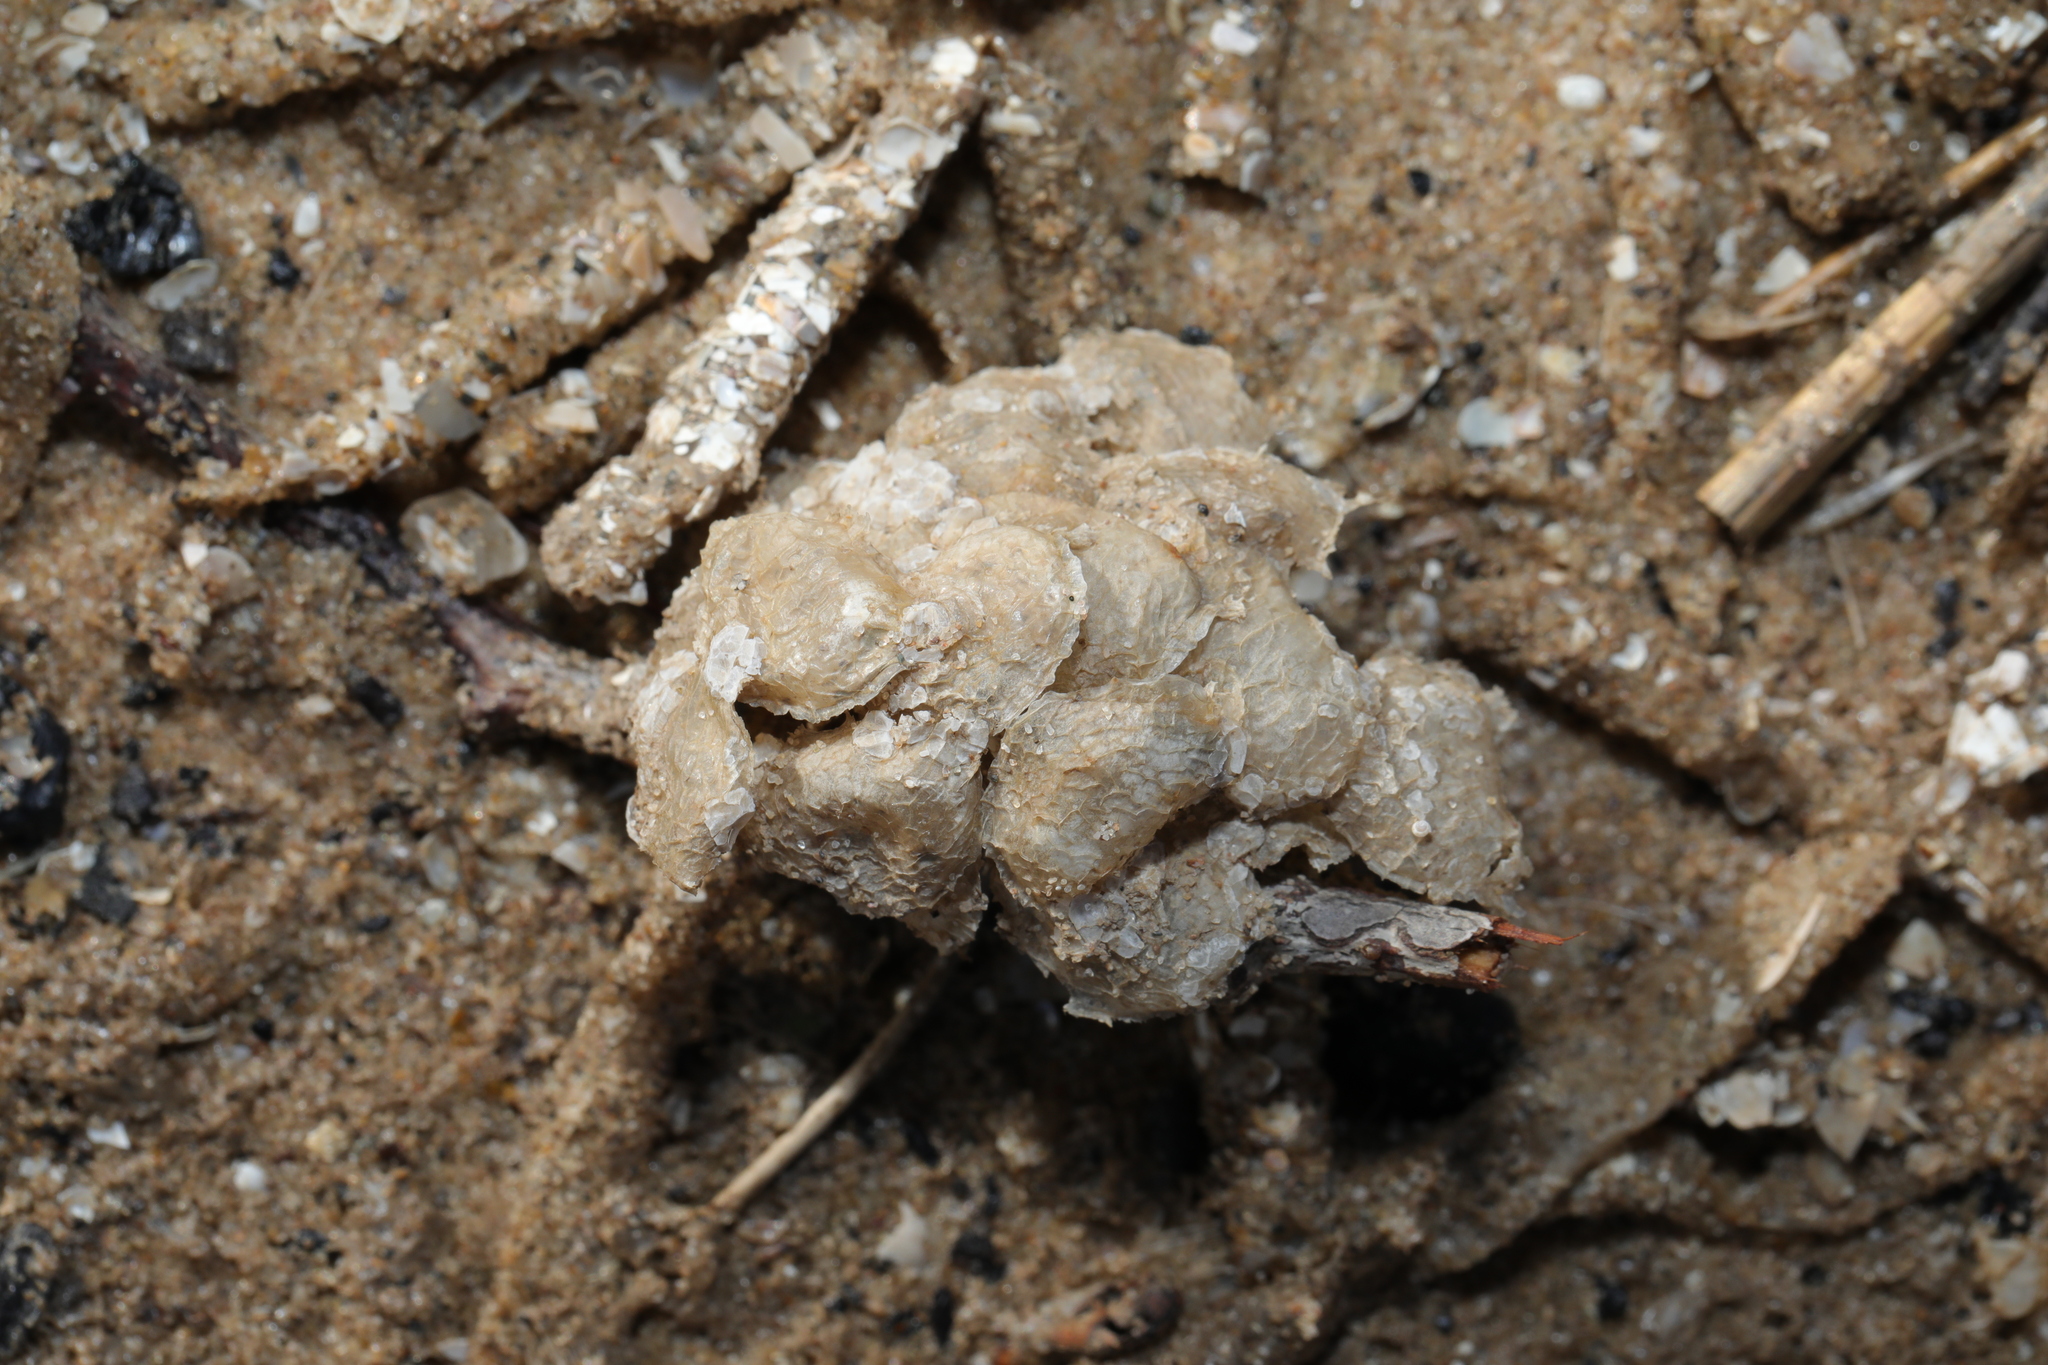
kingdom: Animalia
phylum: Mollusca
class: Gastropoda
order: Neogastropoda
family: Buccinidae
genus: Buccinum
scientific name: Buccinum undatum
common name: Common whelk
